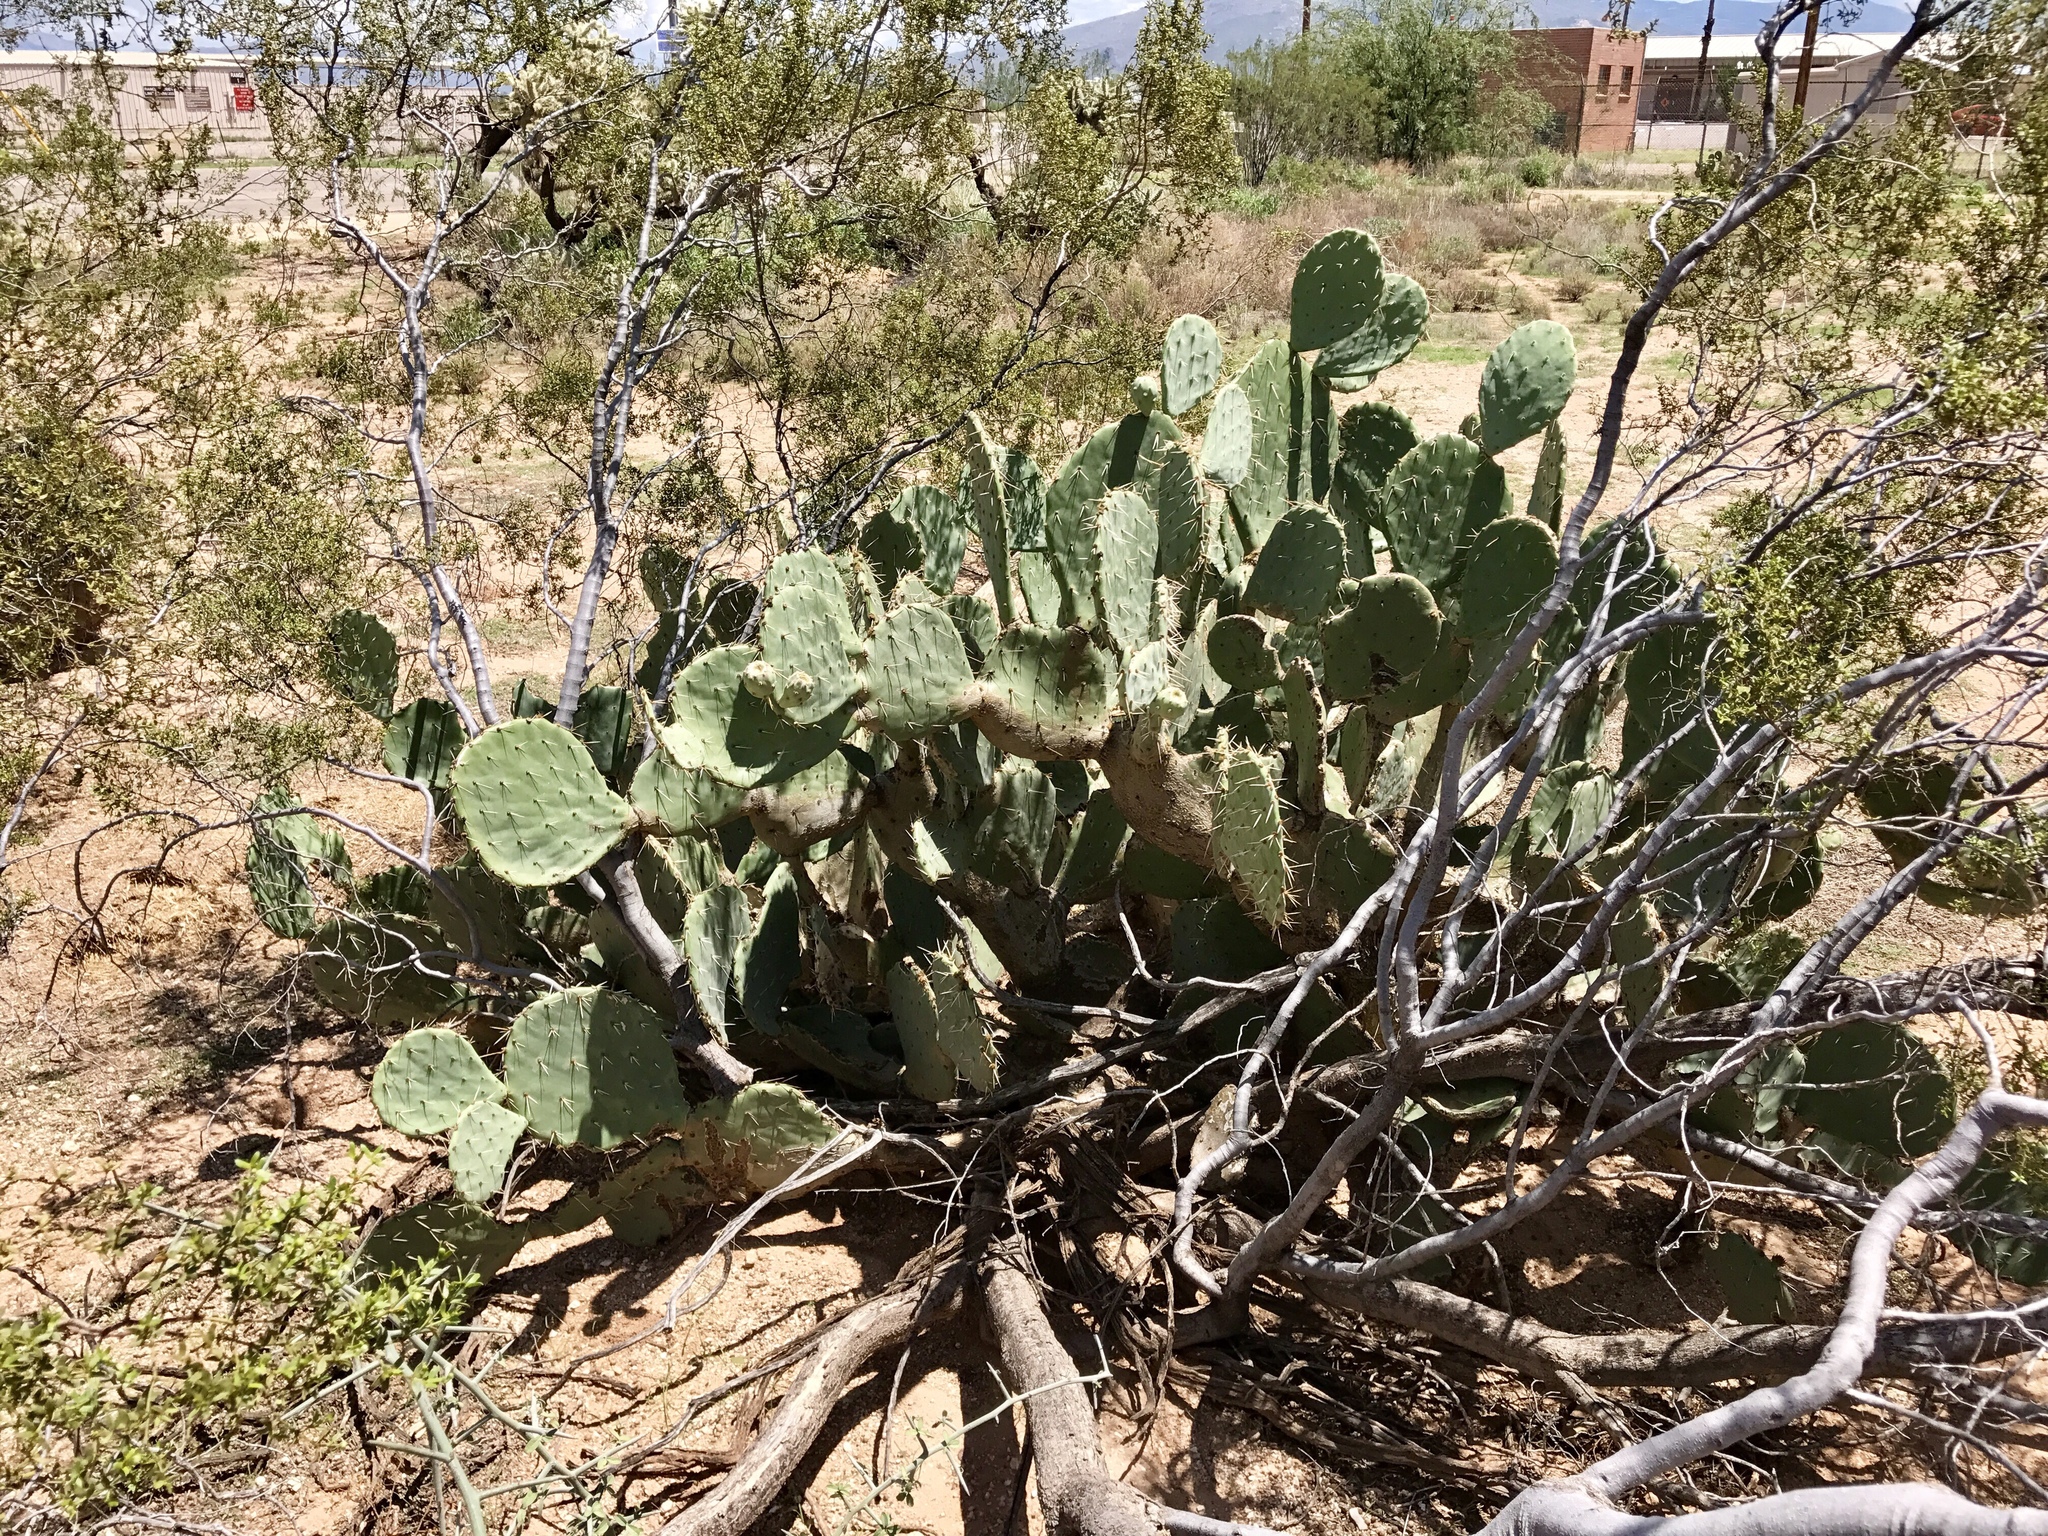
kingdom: Plantae
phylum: Tracheophyta
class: Magnoliopsida
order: Caryophyllales
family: Cactaceae
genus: Opuntia
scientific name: Opuntia engelmannii
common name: Cactus-apple
